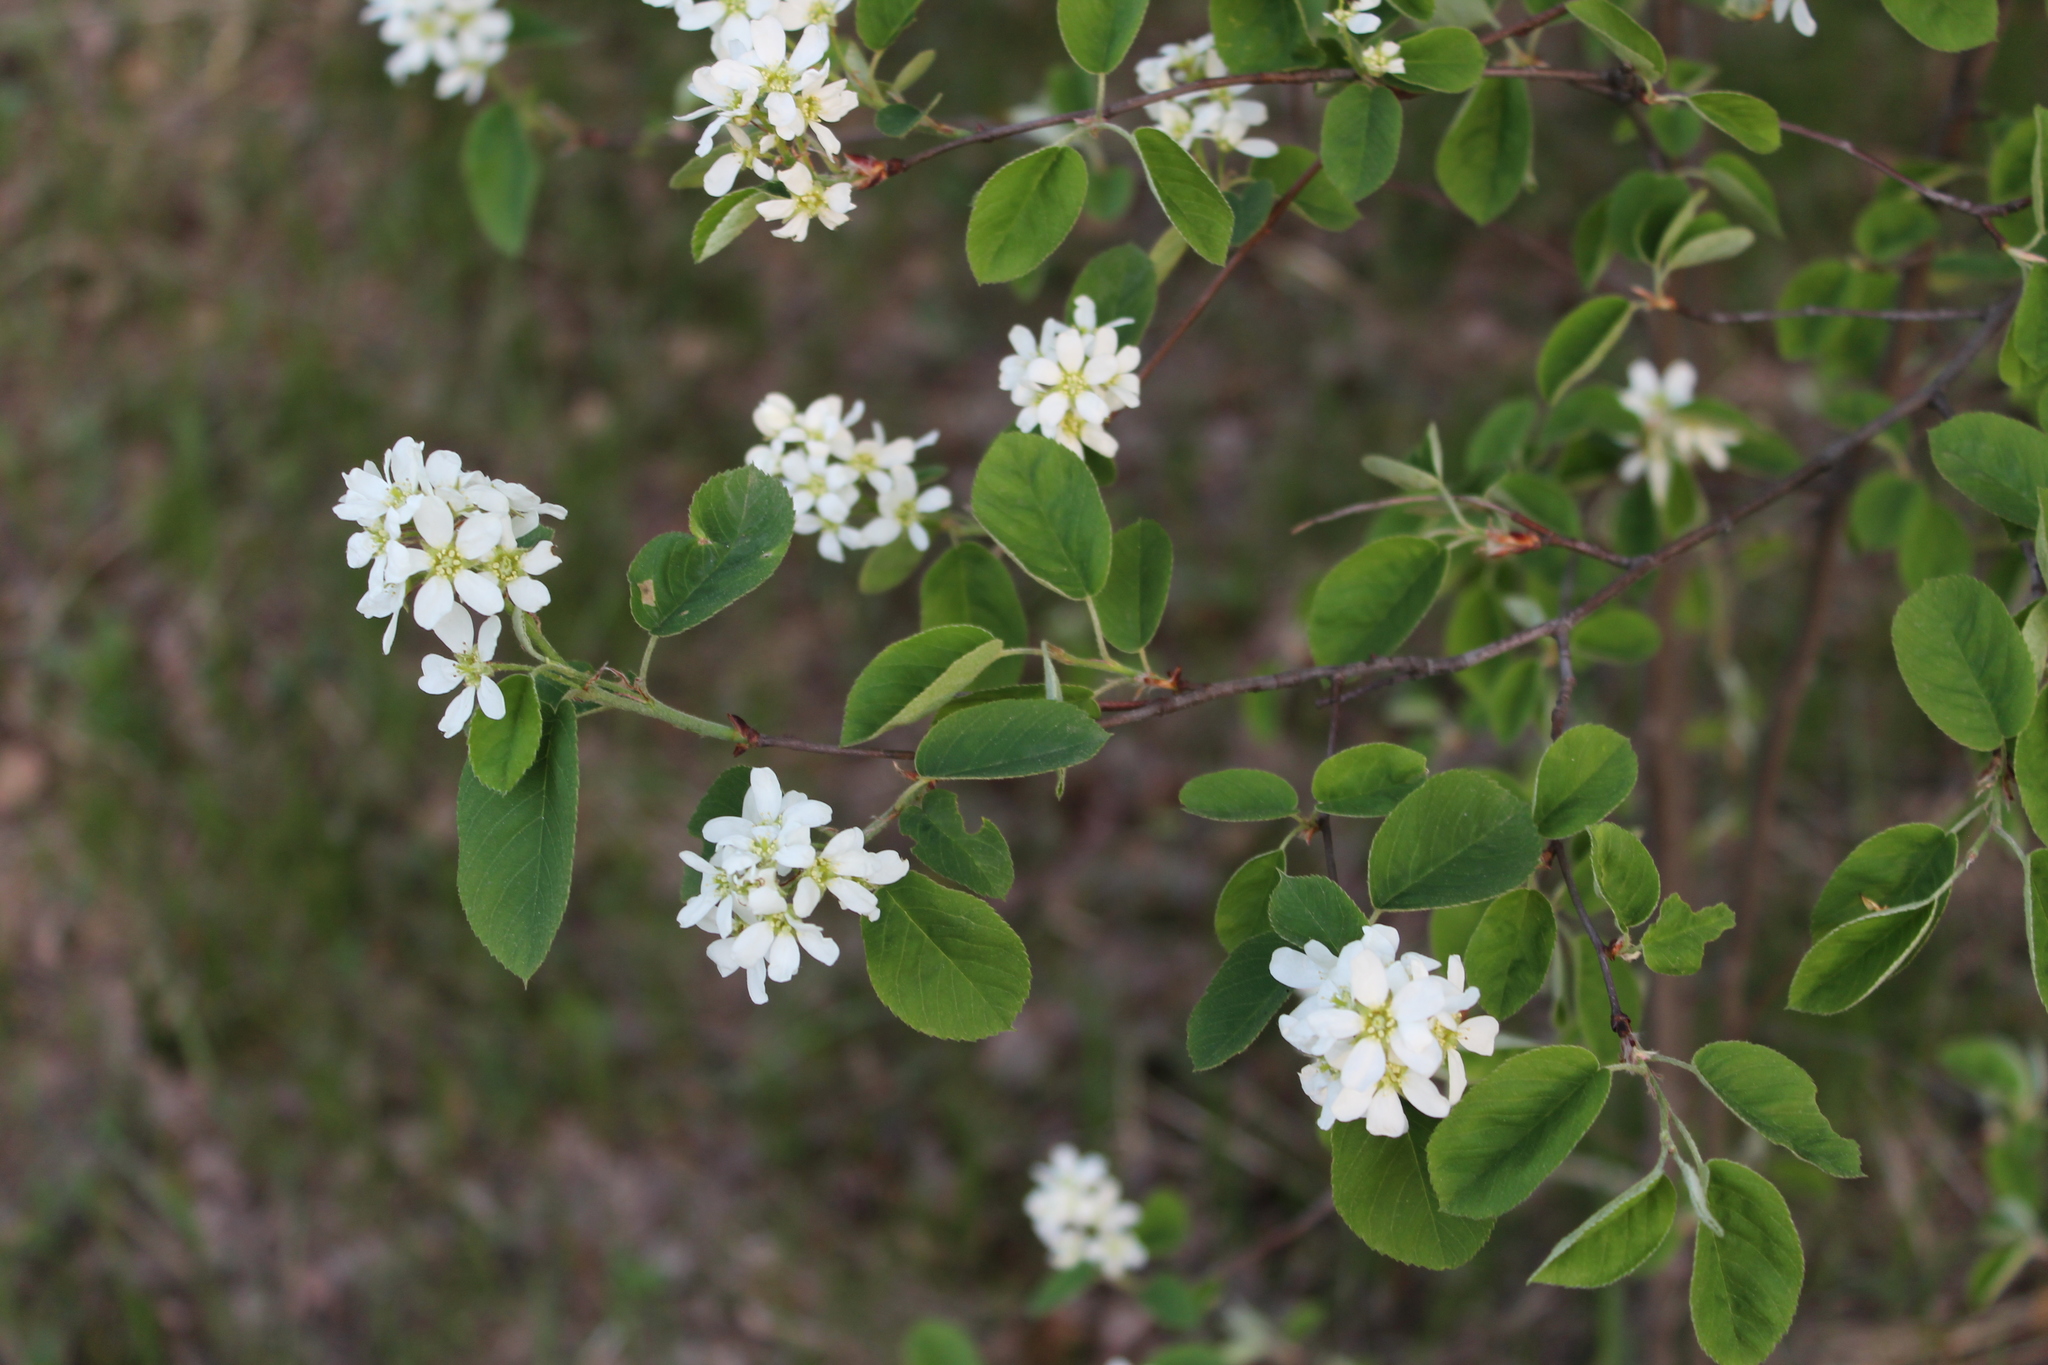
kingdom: Plantae
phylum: Tracheophyta
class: Magnoliopsida
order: Rosales
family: Rosaceae
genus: Amelanchier
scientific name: Amelanchier
